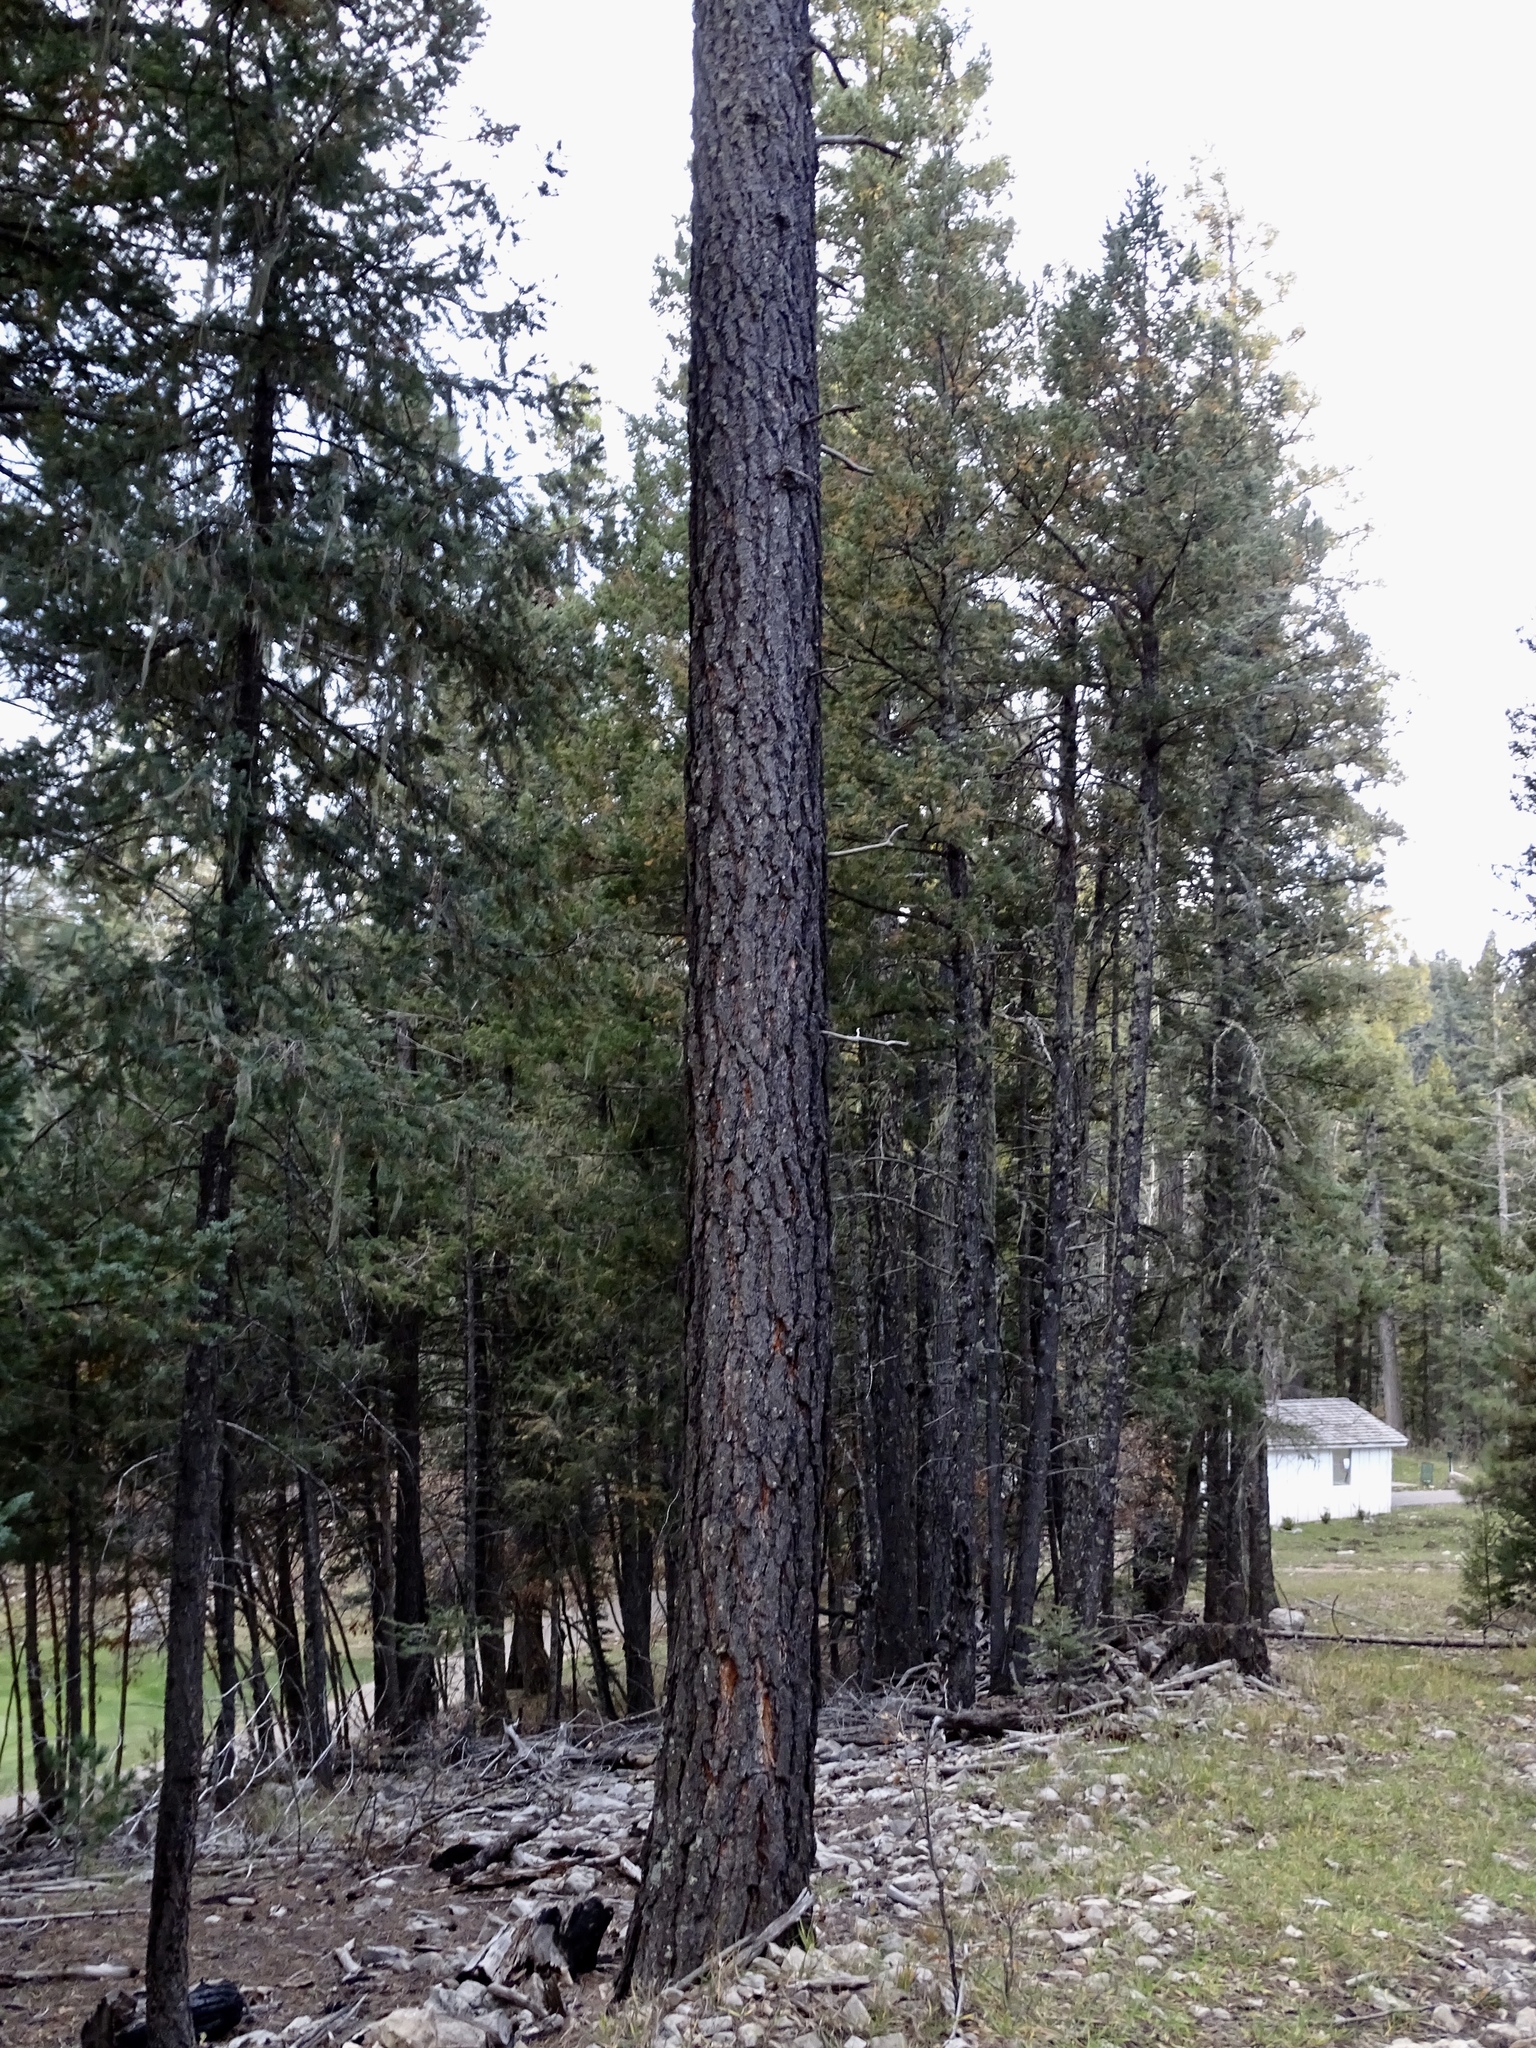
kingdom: Plantae
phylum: Tracheophyta
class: Pinopsida
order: Pinales
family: Pinaceae
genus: Pinus
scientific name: Pinus ponderosa
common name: Western yellow-pine
